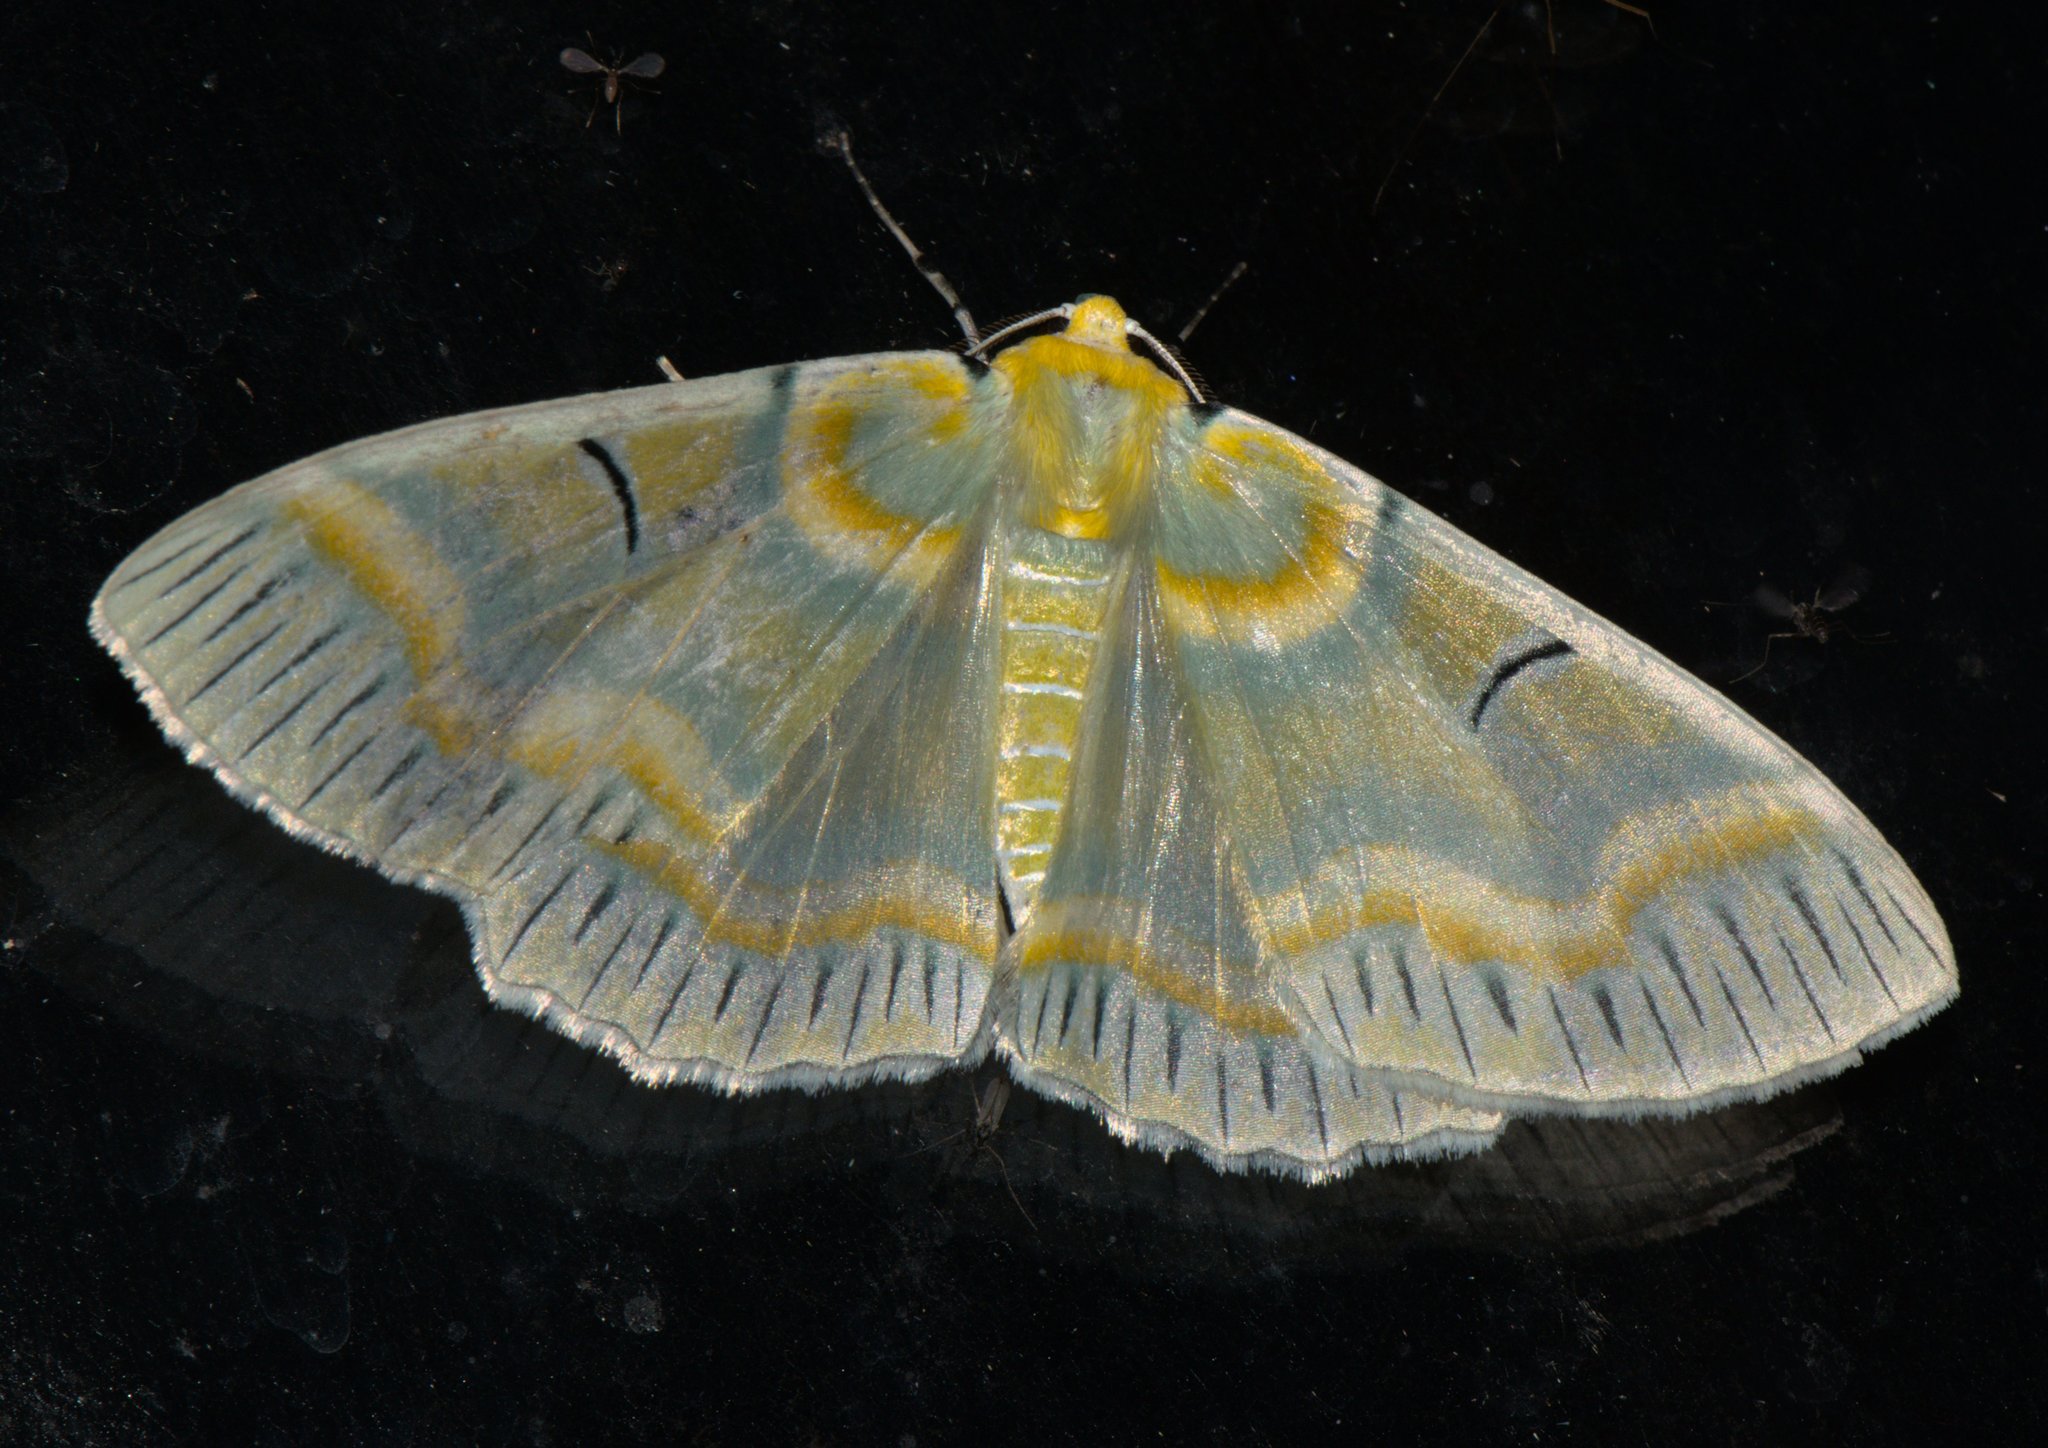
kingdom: Animalia
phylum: Arthropoda
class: Insecta
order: Lepidoptera
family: Geometridae
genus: Iotaphora
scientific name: Iotaphora iridicolor
